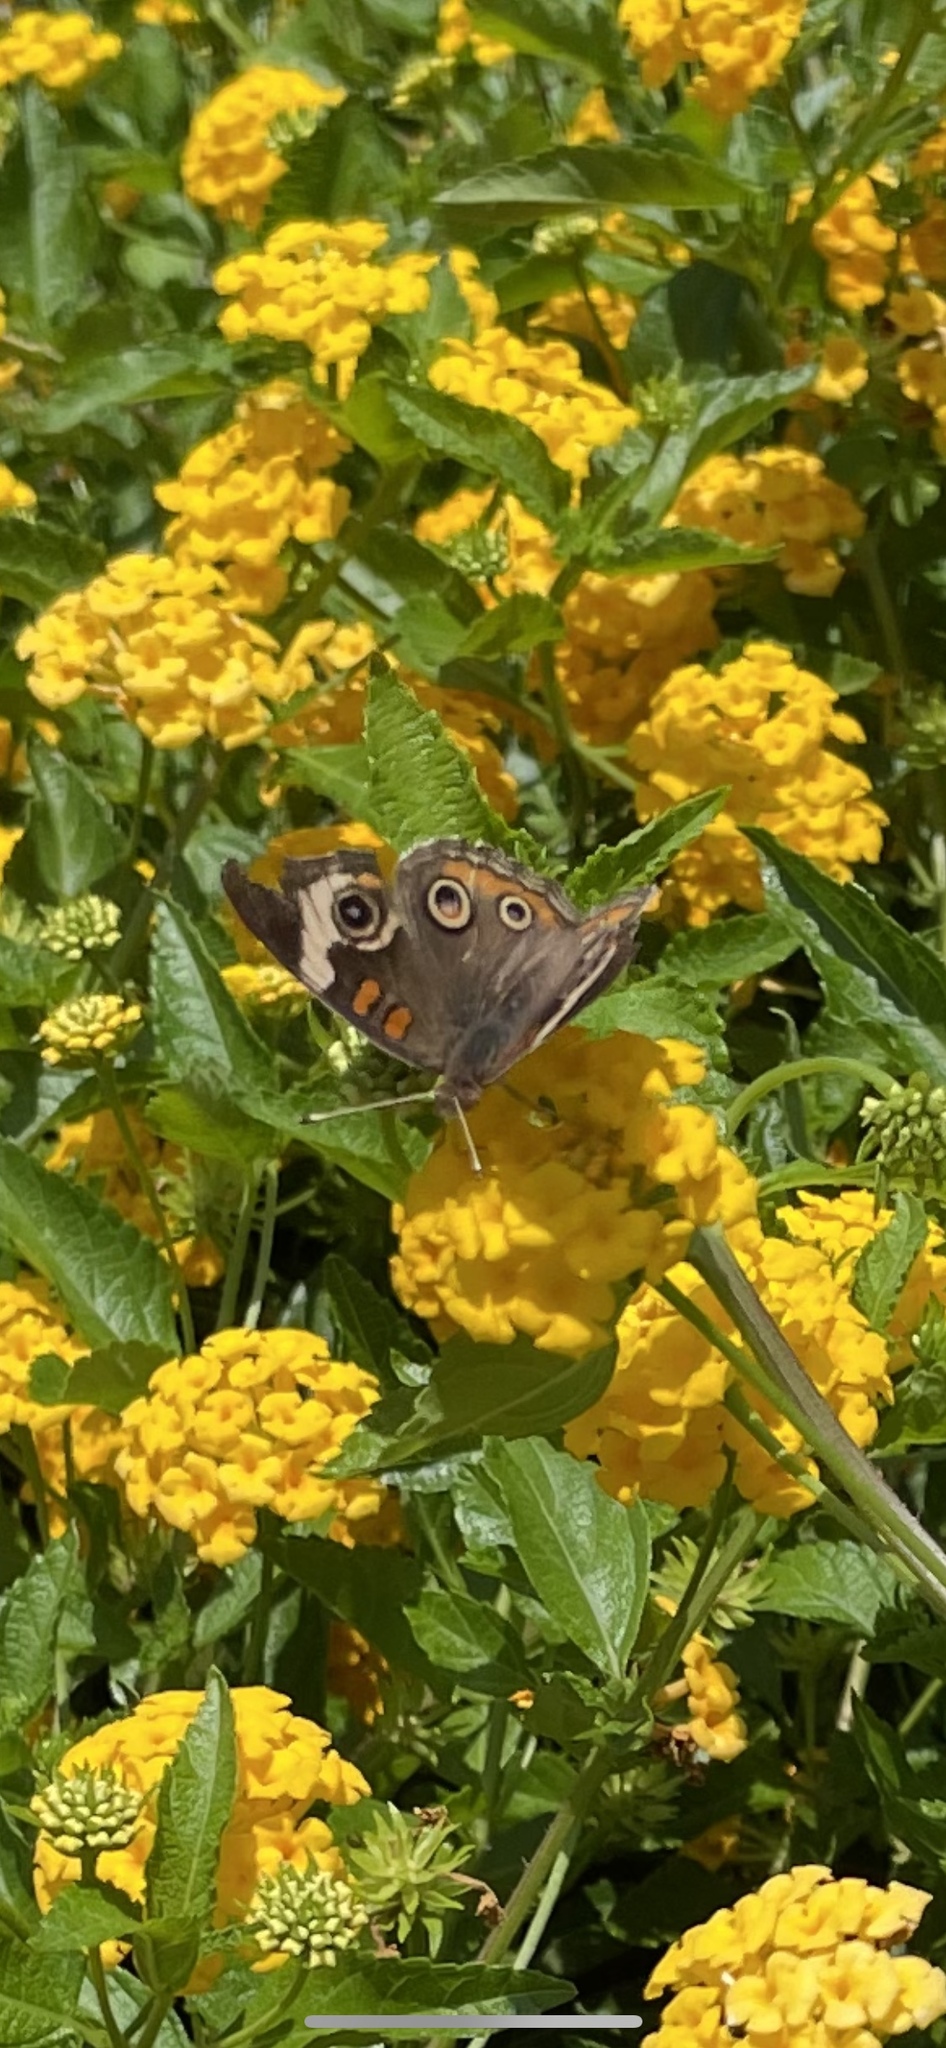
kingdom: Animalia
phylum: Arthropoda
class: Insecta
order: Lepidoptera
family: Nymphalidae
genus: Junonia
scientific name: Junonia coenia
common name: Common buckeye
